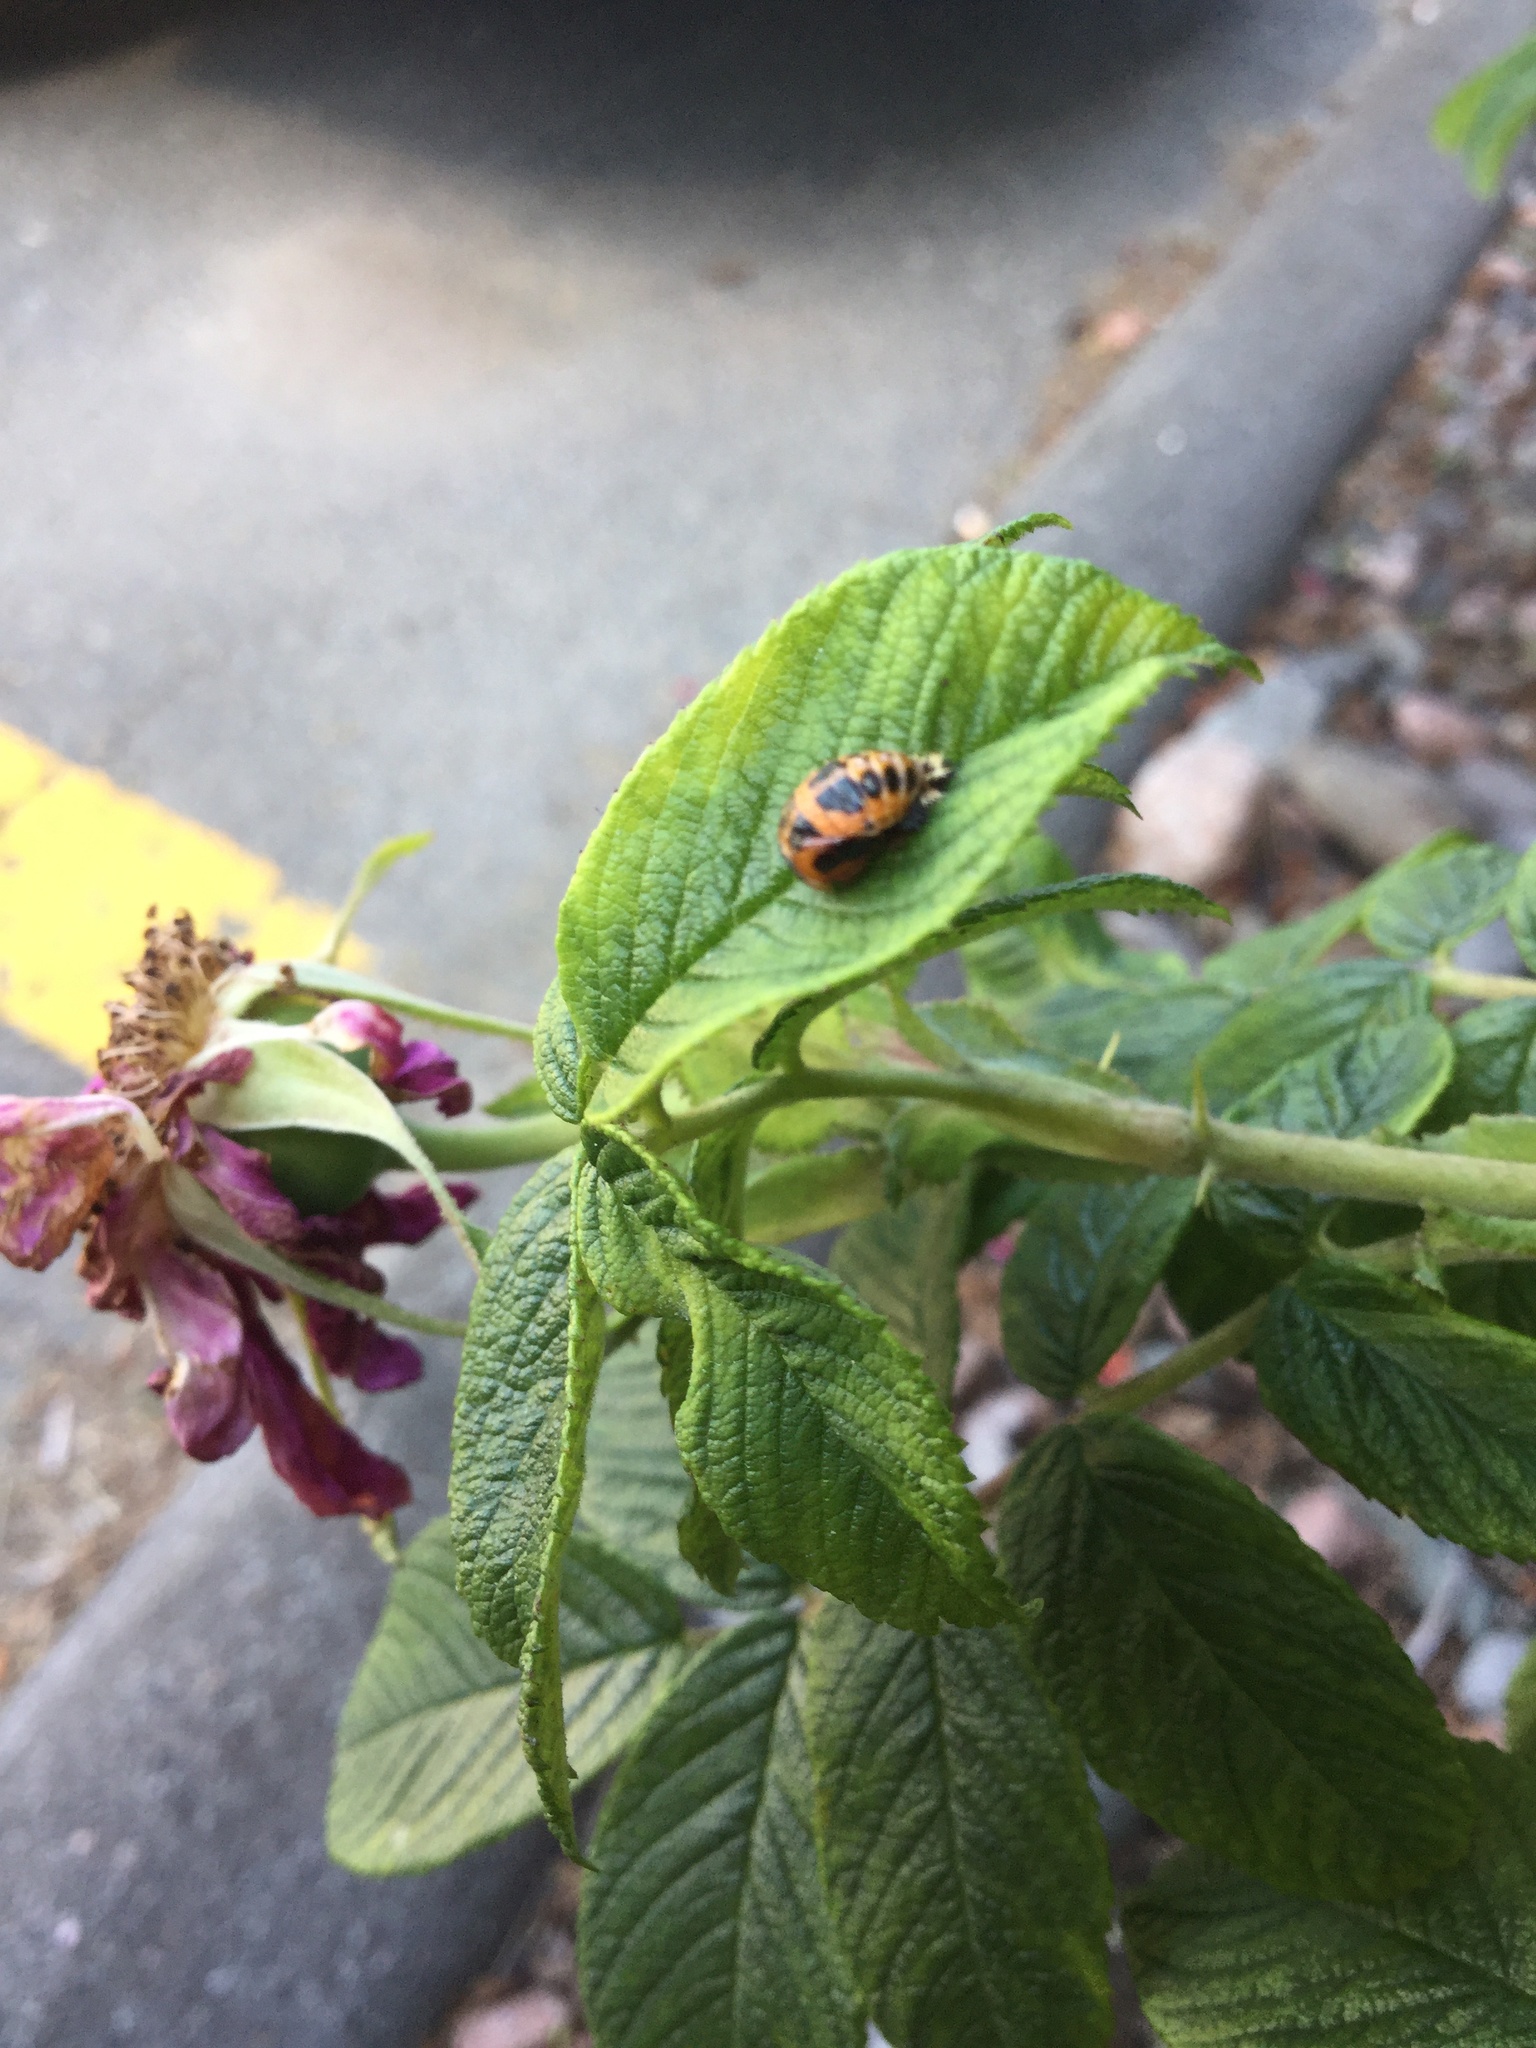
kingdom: Animalia
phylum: Arthropoda
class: Insecta
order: Coleoptera
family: Coccinellidae
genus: Harmonia
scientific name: Harmonia axyridis
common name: Harlequin ladybird
